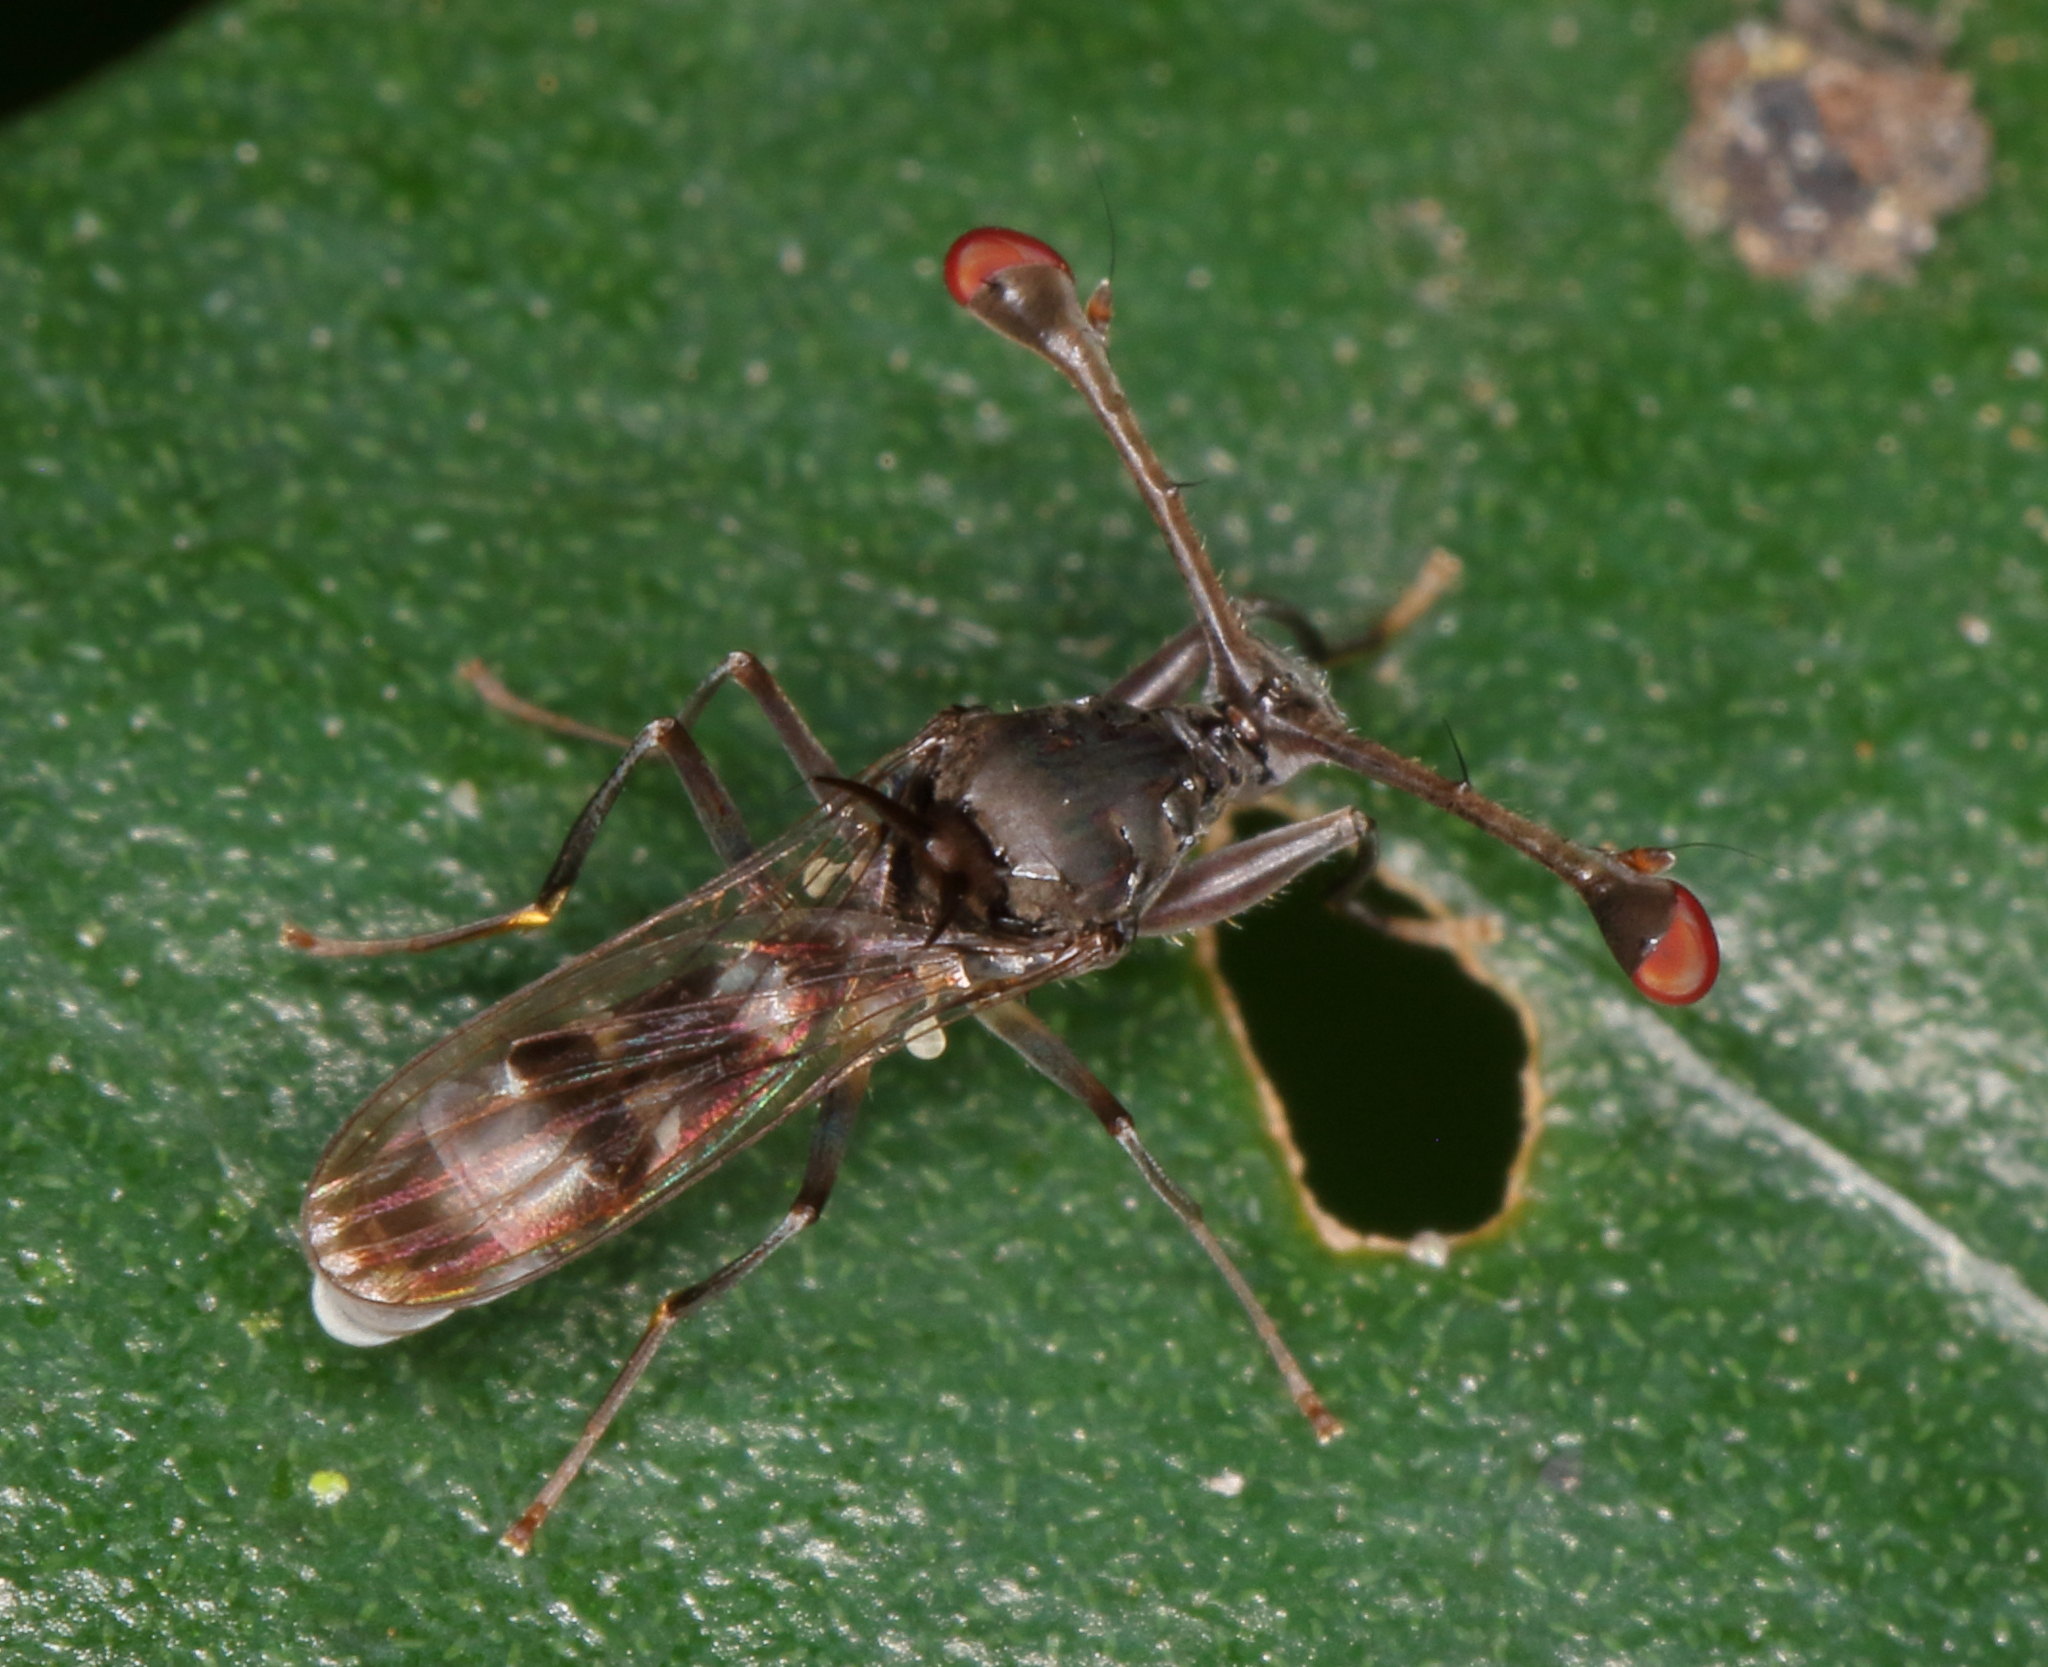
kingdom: Animalia
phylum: Arthropoda
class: Insecta
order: Diptera
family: Diopsidae
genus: Diasemopsis
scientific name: Diasemopsis obstans
